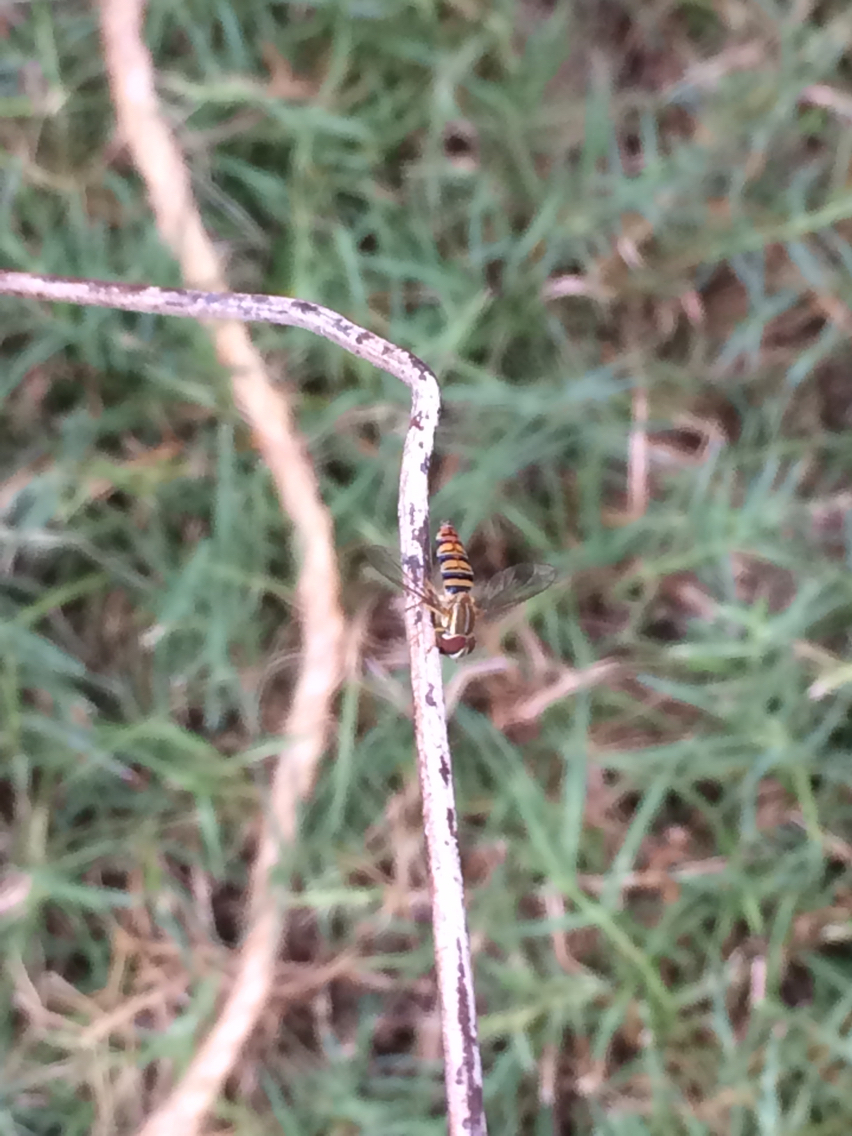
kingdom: Animalia
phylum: Arthropoda
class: Insecta
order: Diptera
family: Syrphidae
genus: Toxomerus
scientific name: Toxomerus politus
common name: Maize calligrapher
